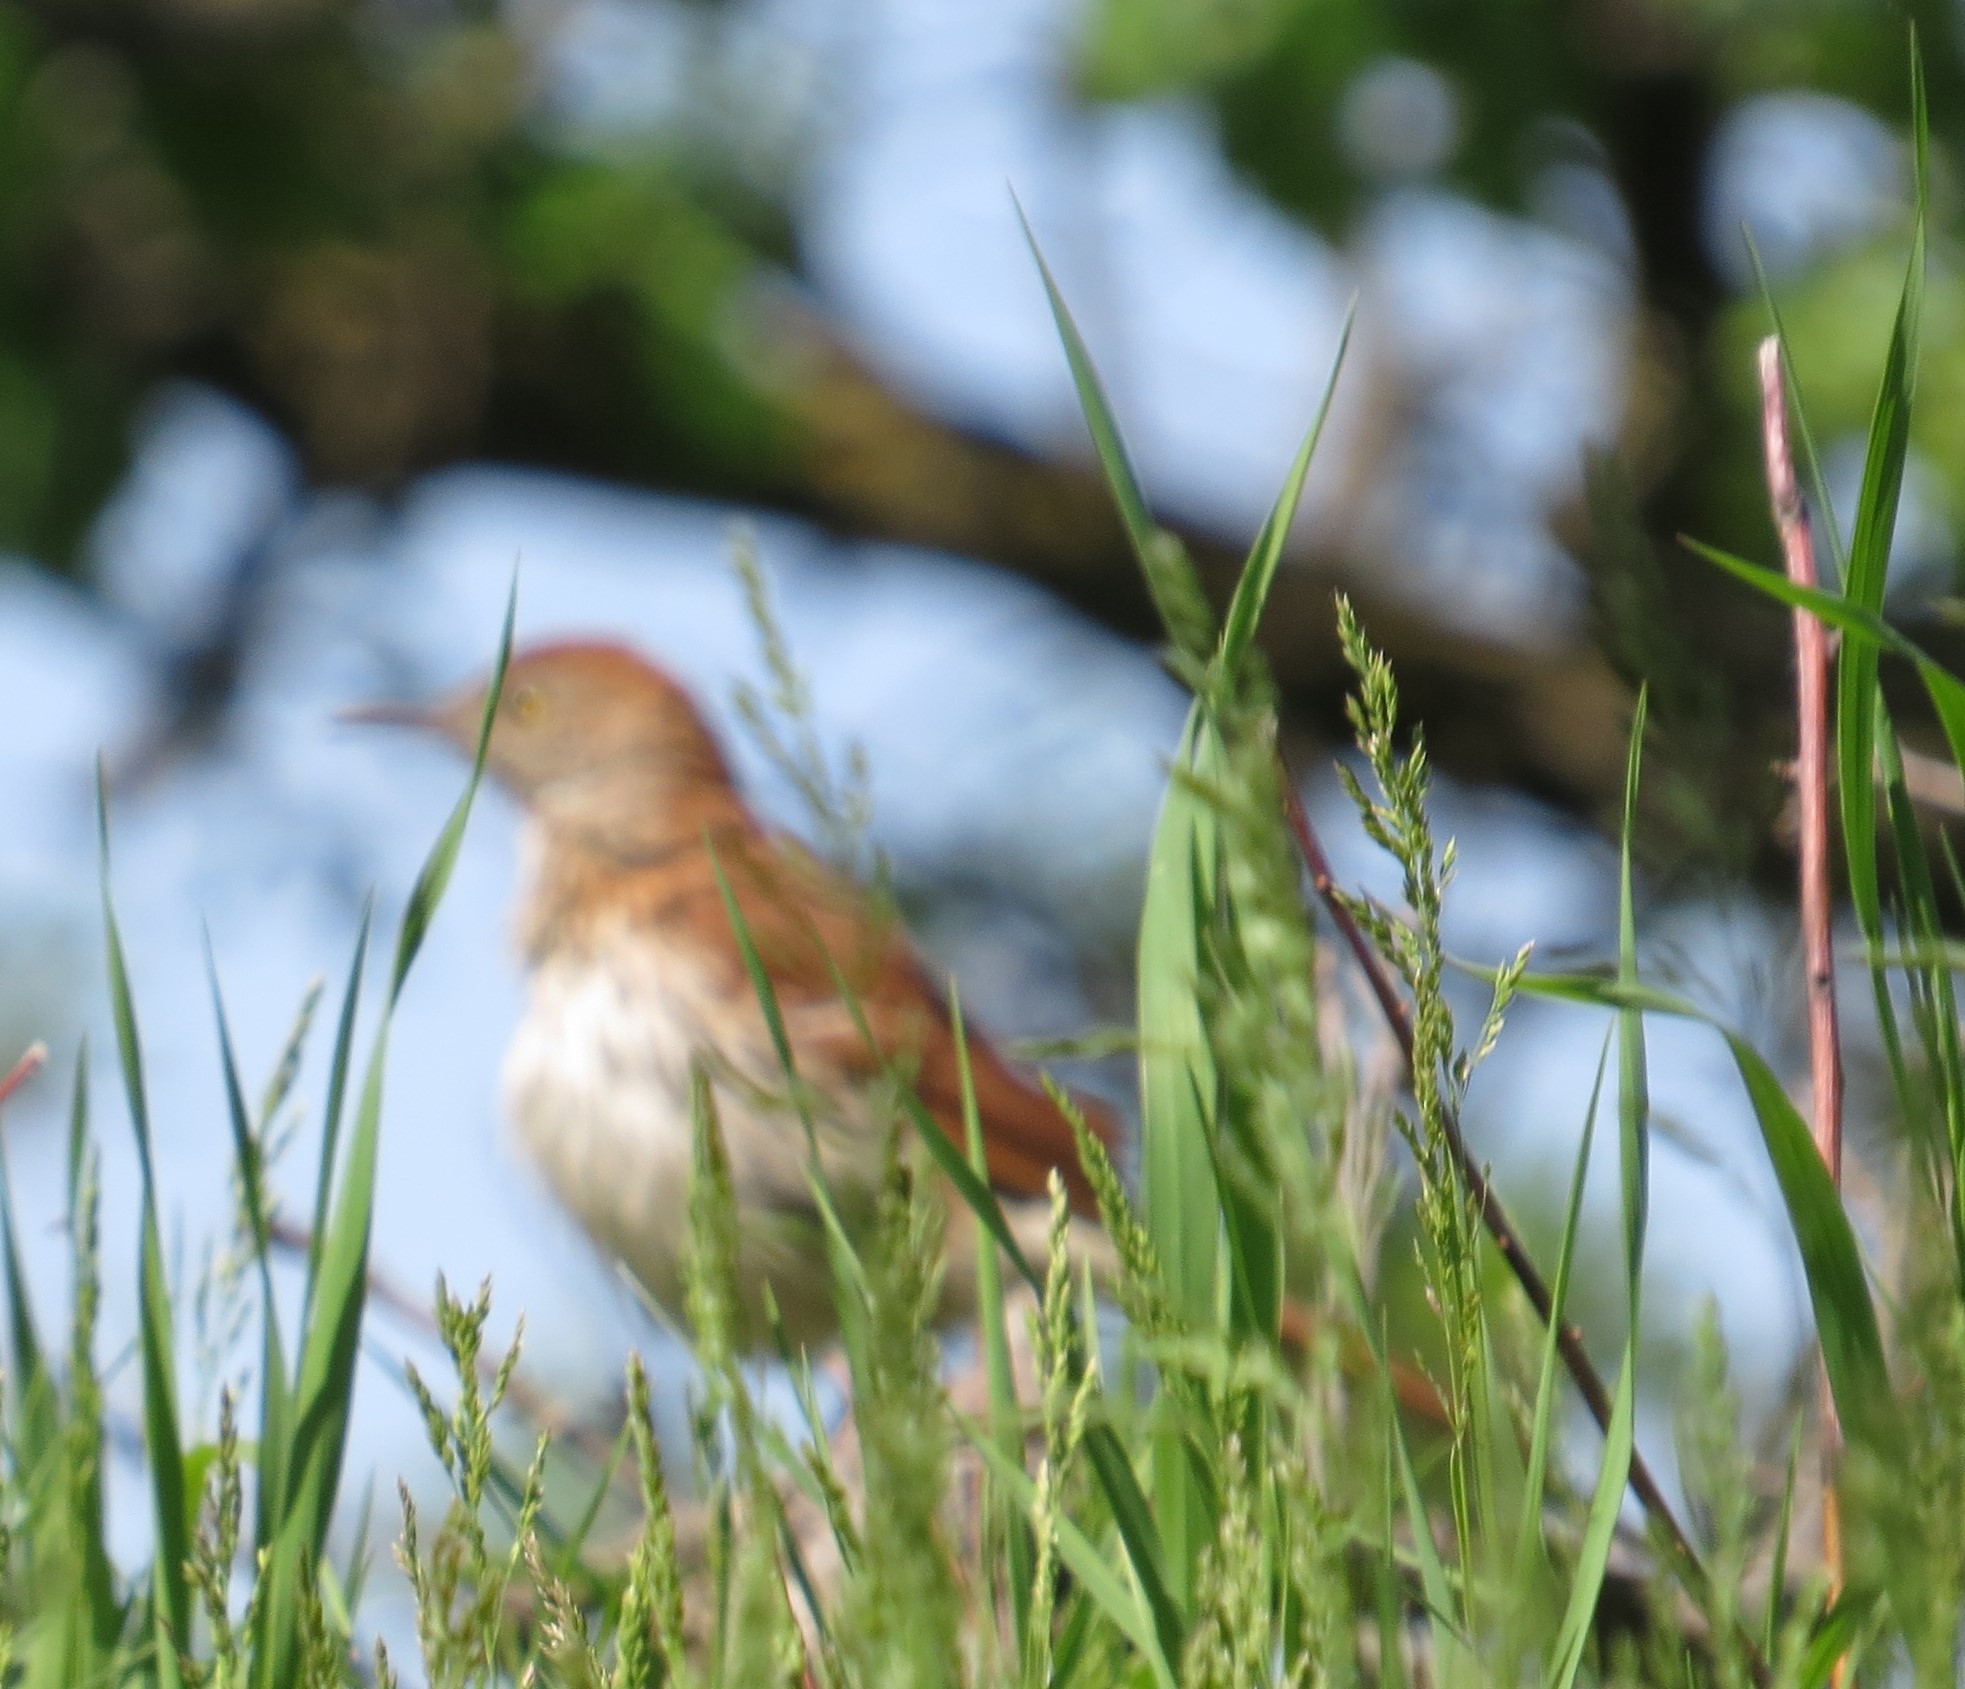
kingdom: Animalia
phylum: Chordata
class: Aves
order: Passeriformes
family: Mimidae
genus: Toxostoma
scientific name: Toxostoma rufum
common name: Brown thrasher
